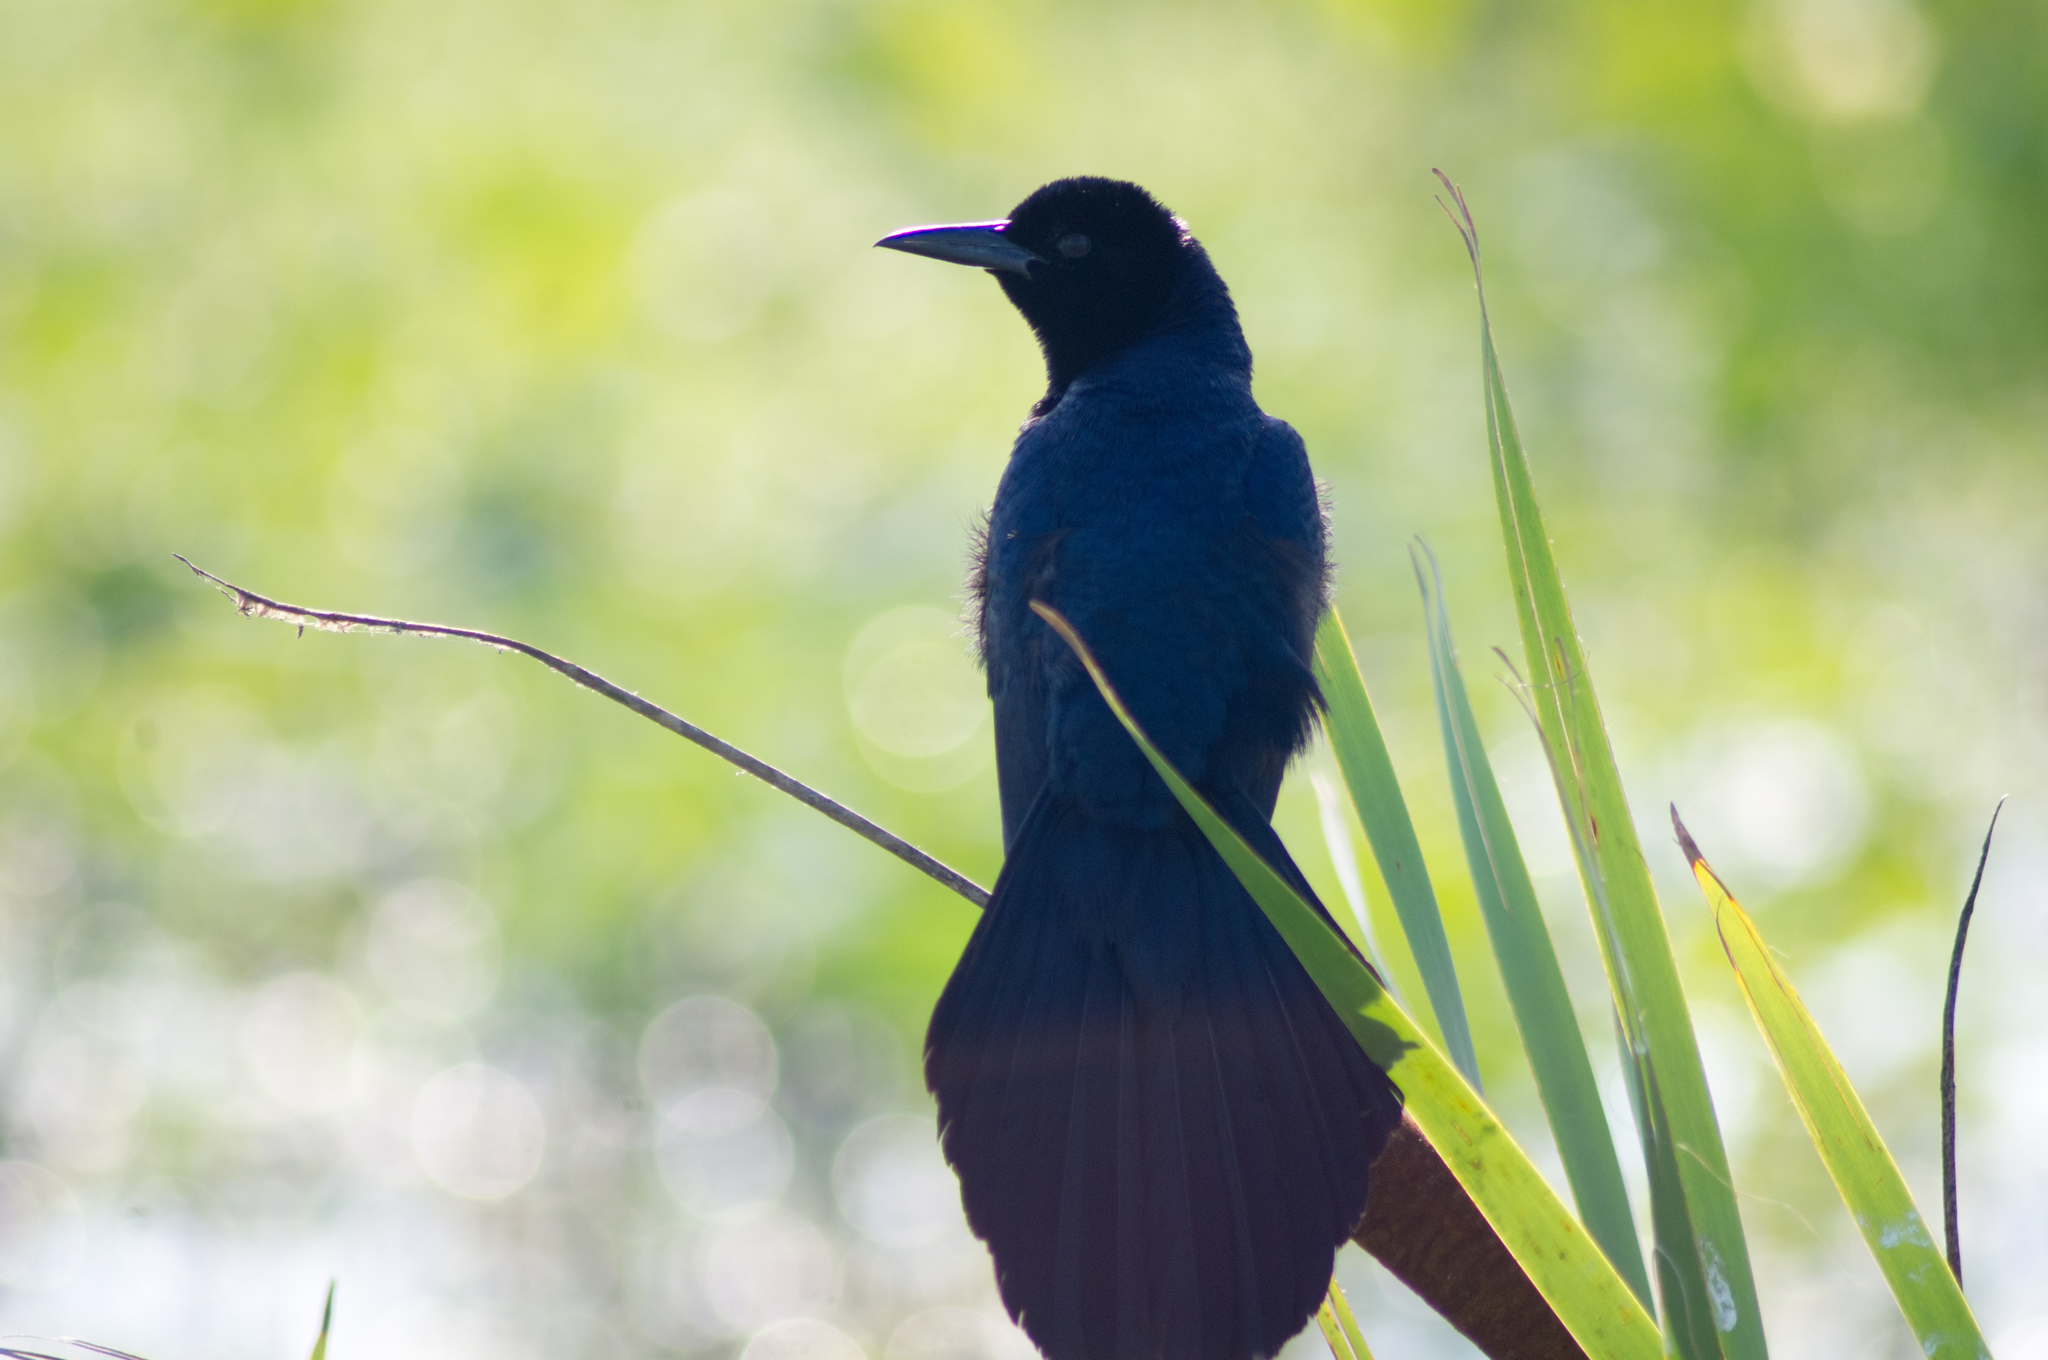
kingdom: Animalia
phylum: Chordata
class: Aves
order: Passeriformes
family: Icteridae
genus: Quiscalus
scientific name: Quiscalus major
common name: Boat-tailed grackle
